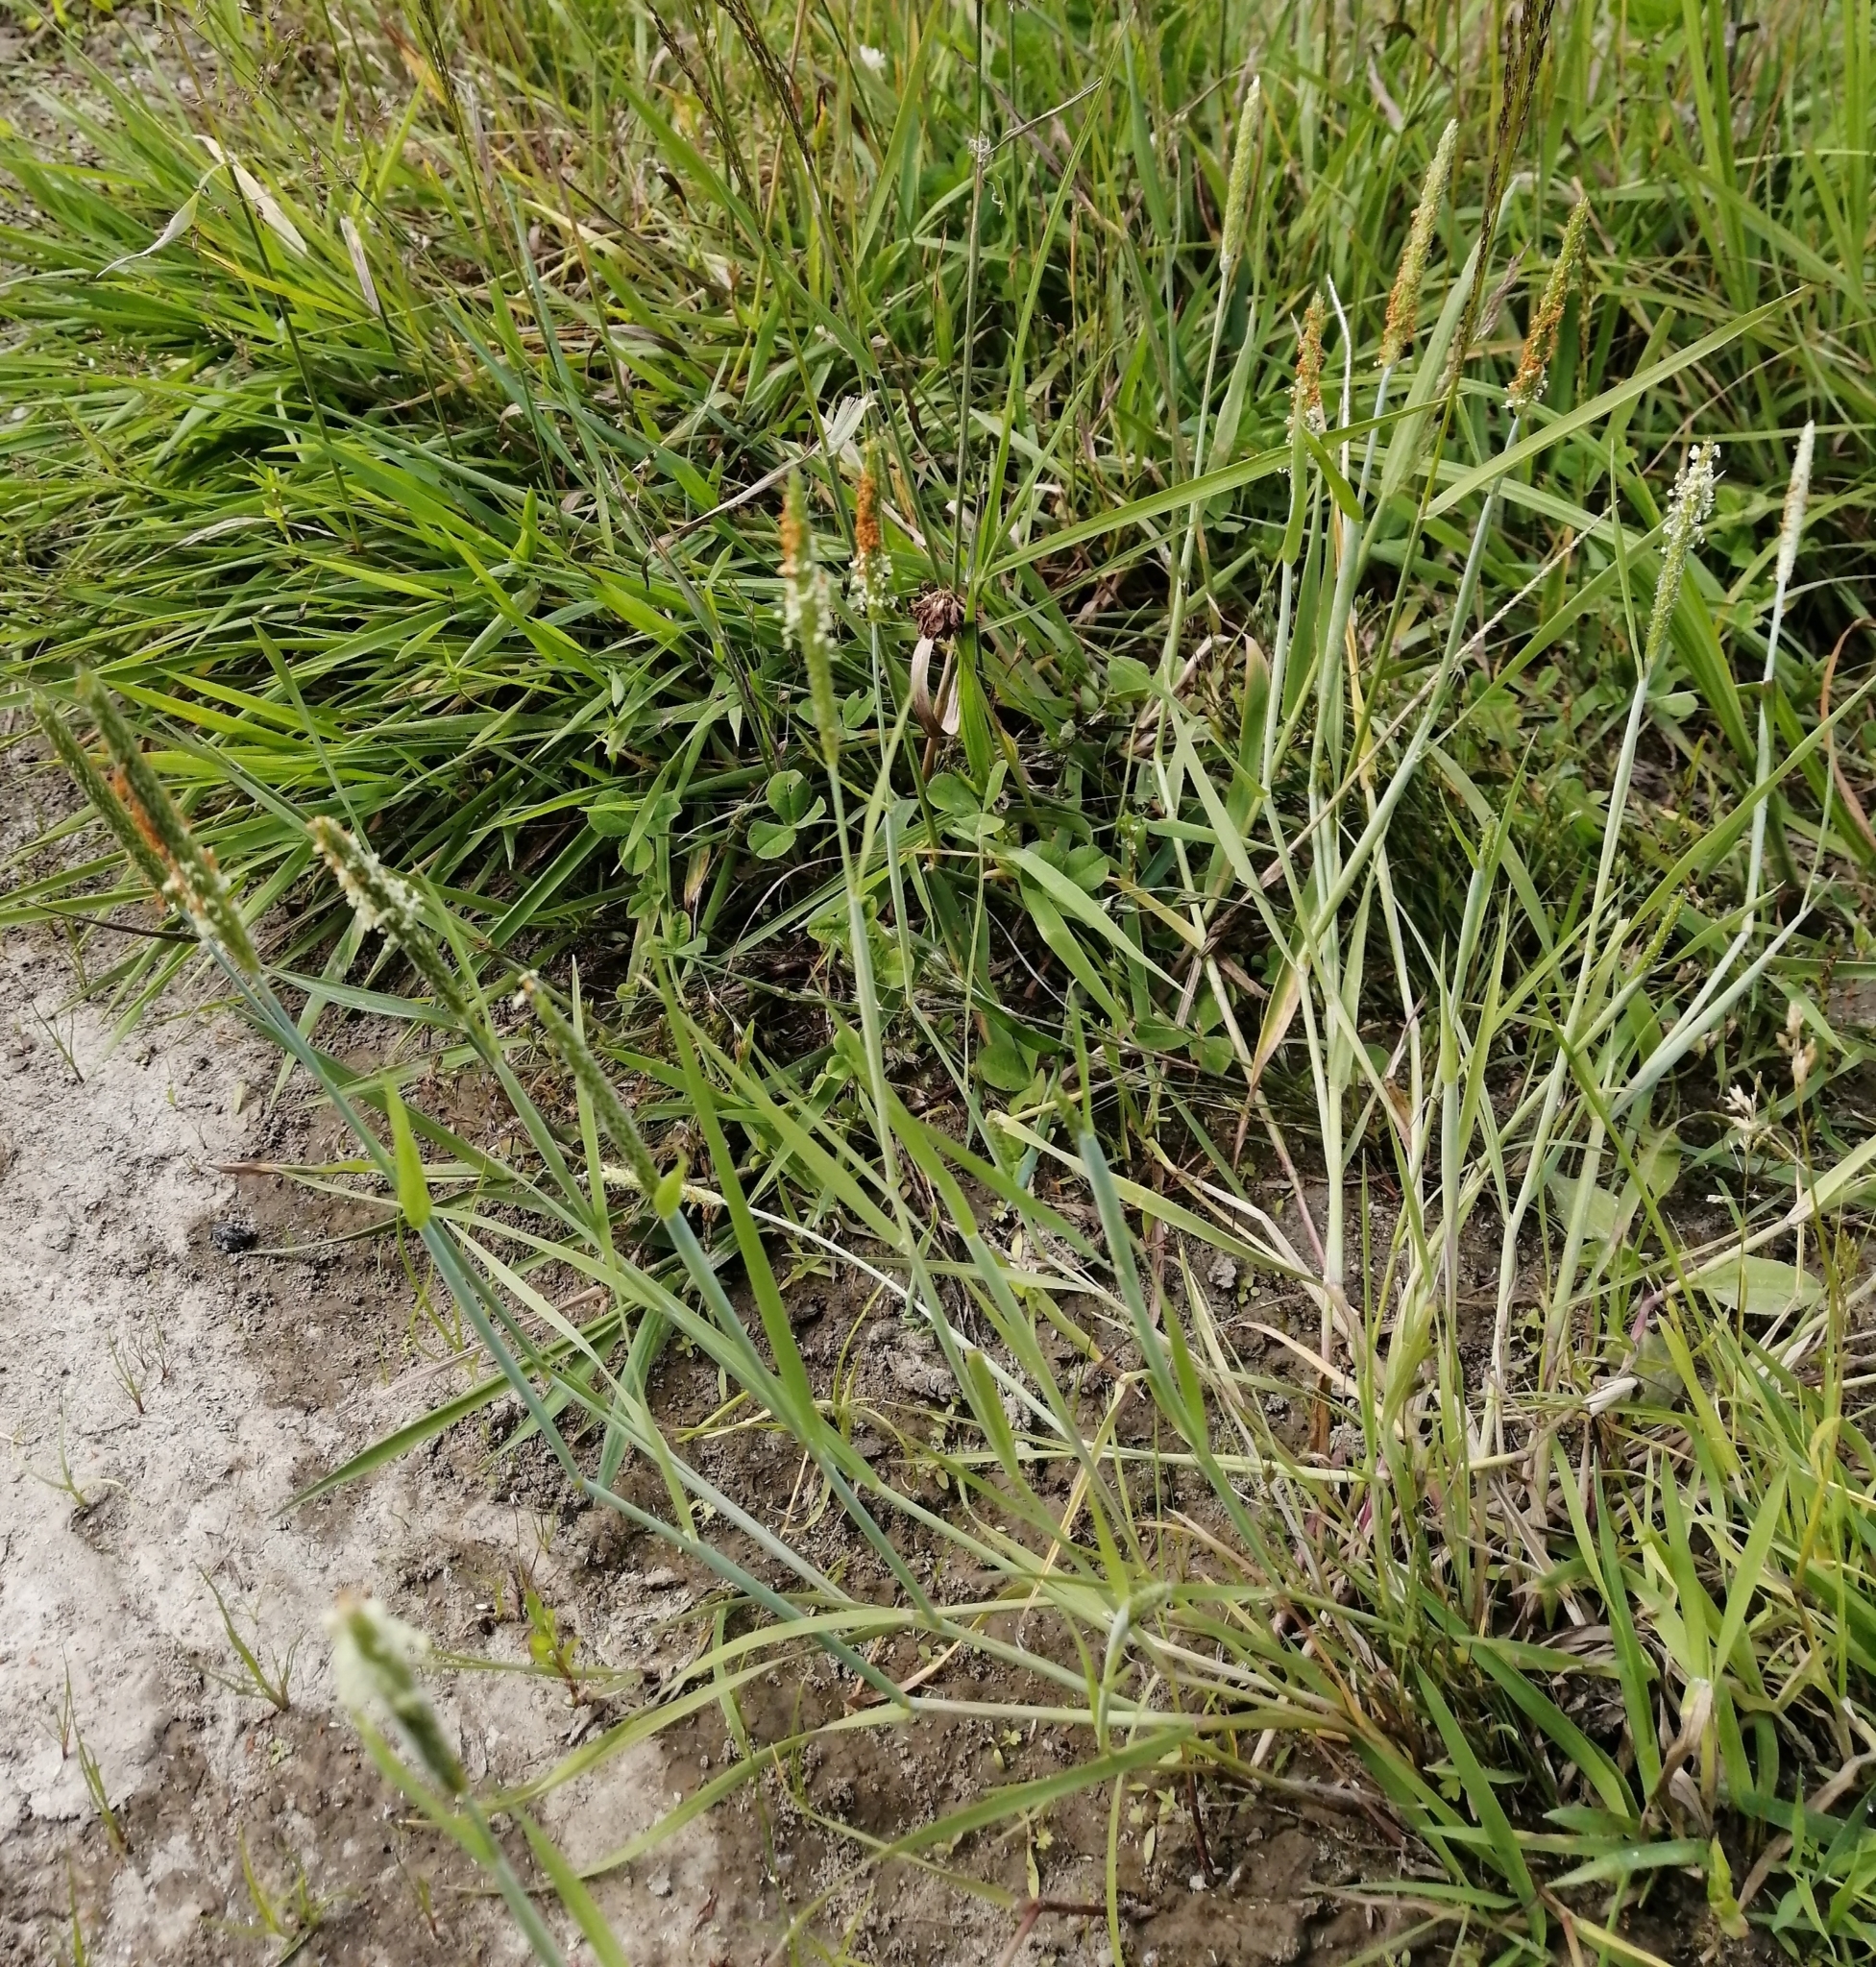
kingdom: Plantae
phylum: Tracheophyta
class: Liliopsida
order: Poales
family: Poaceae
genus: Alopecurus
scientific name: Alopecurus aequalis
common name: Orange foxtail
